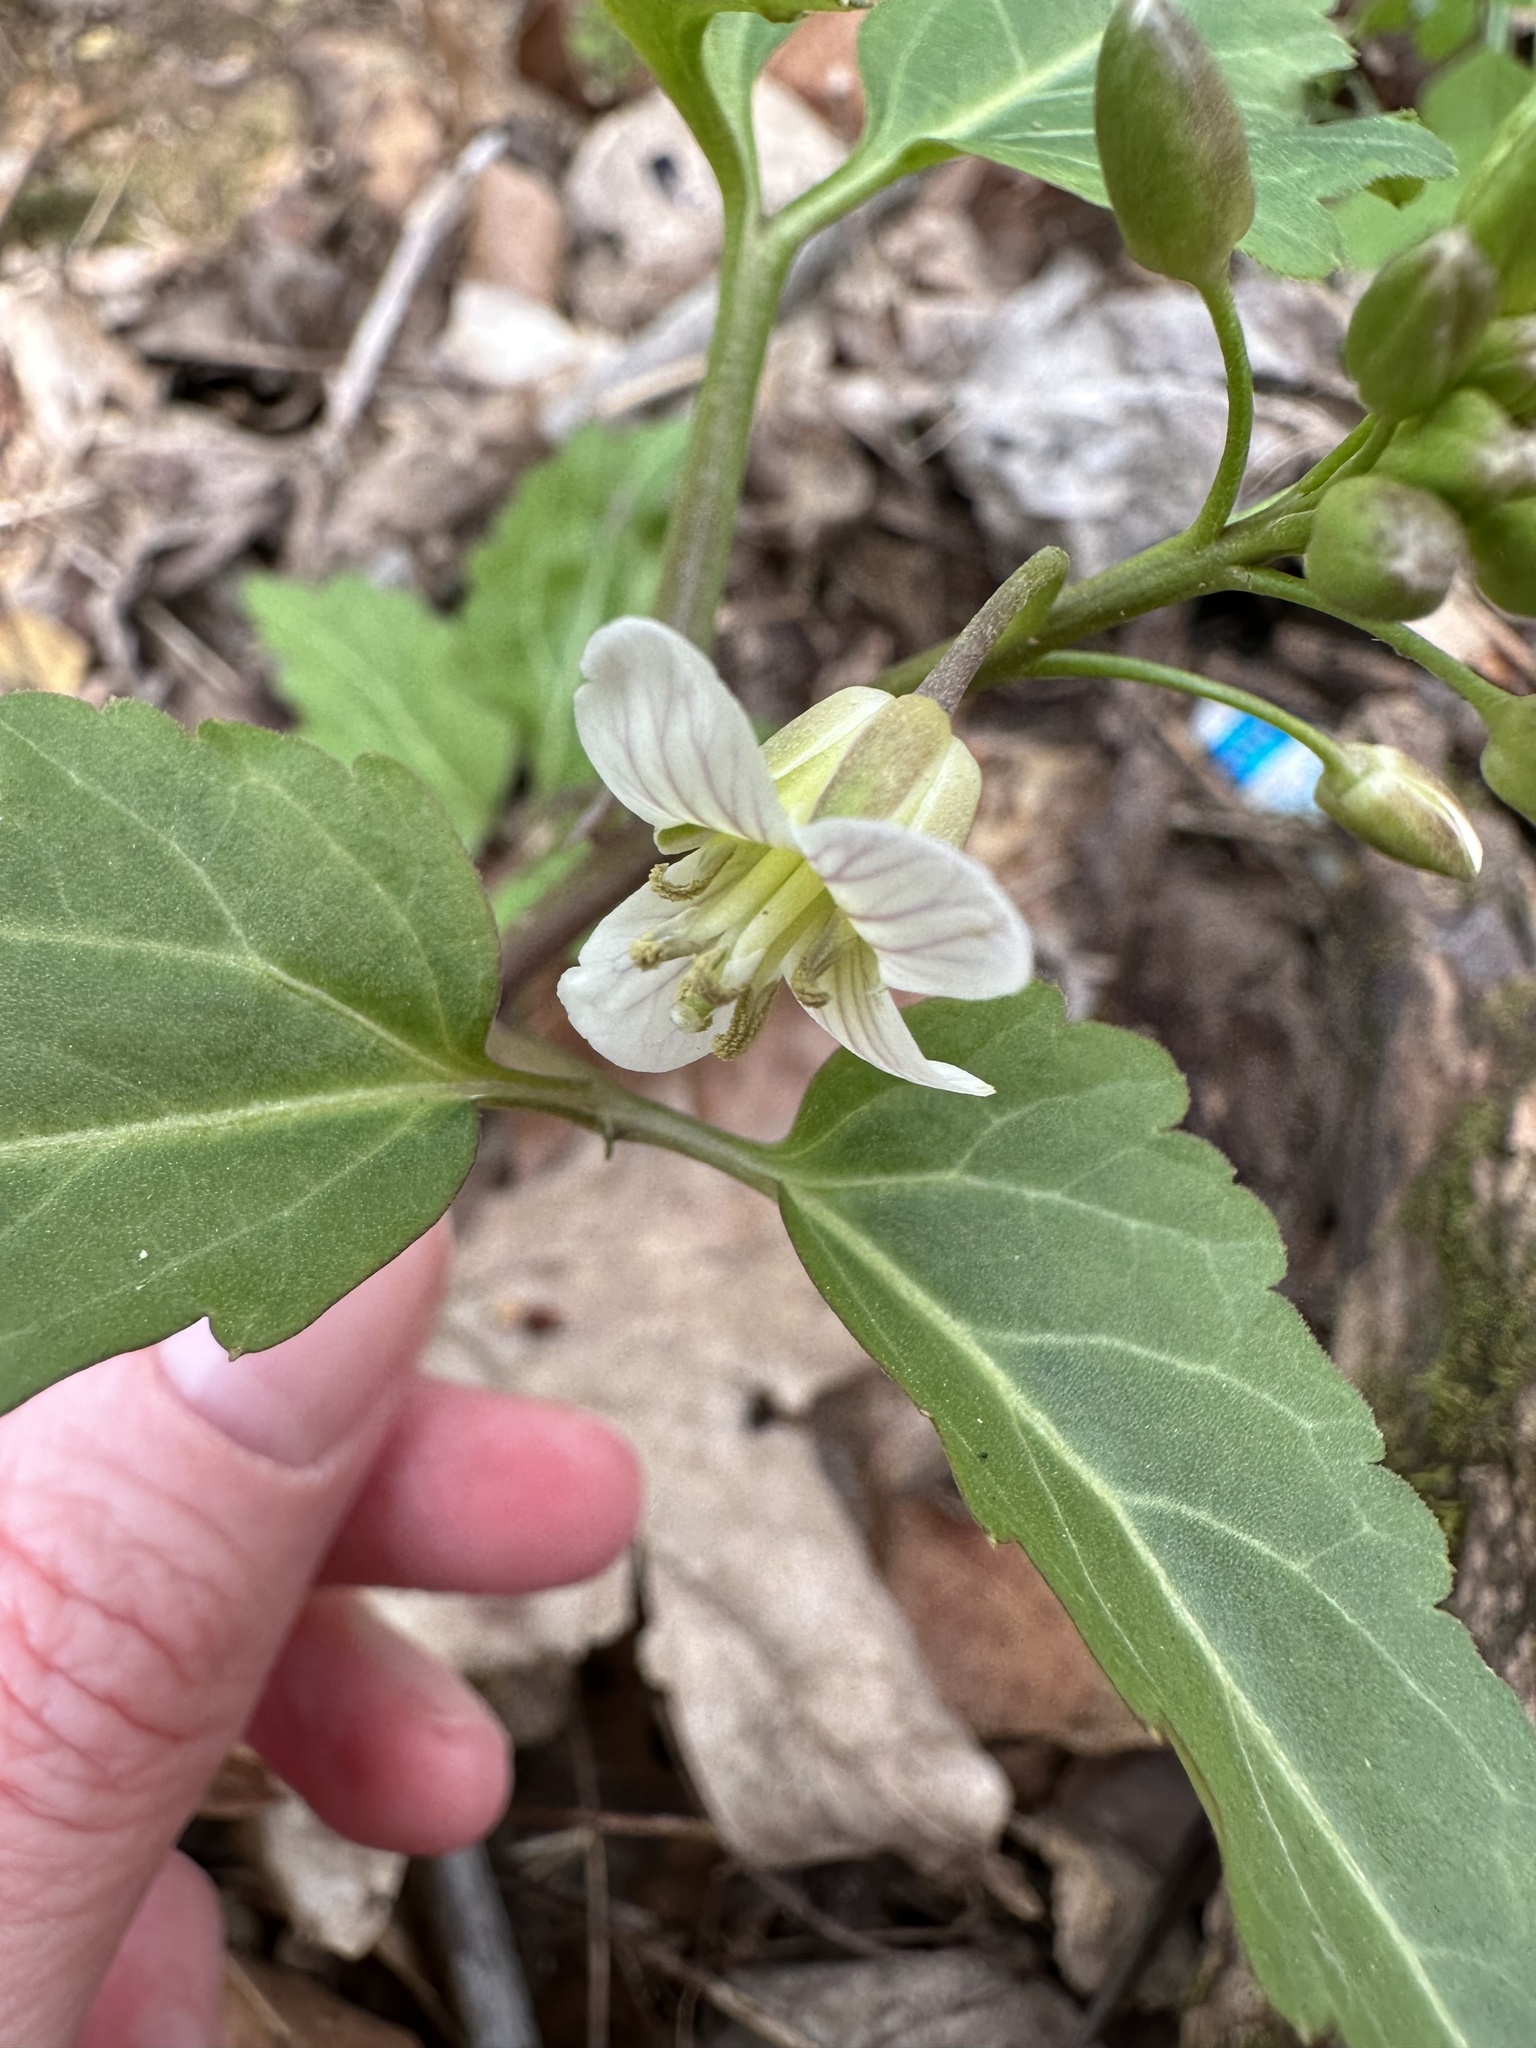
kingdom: Plantae
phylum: Tracheophyta
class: Magnoliopsida
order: Brassicales
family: Brassicaceae
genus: Cardamine
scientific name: Cardamine diphylla
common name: Broad-leaved toothwort
